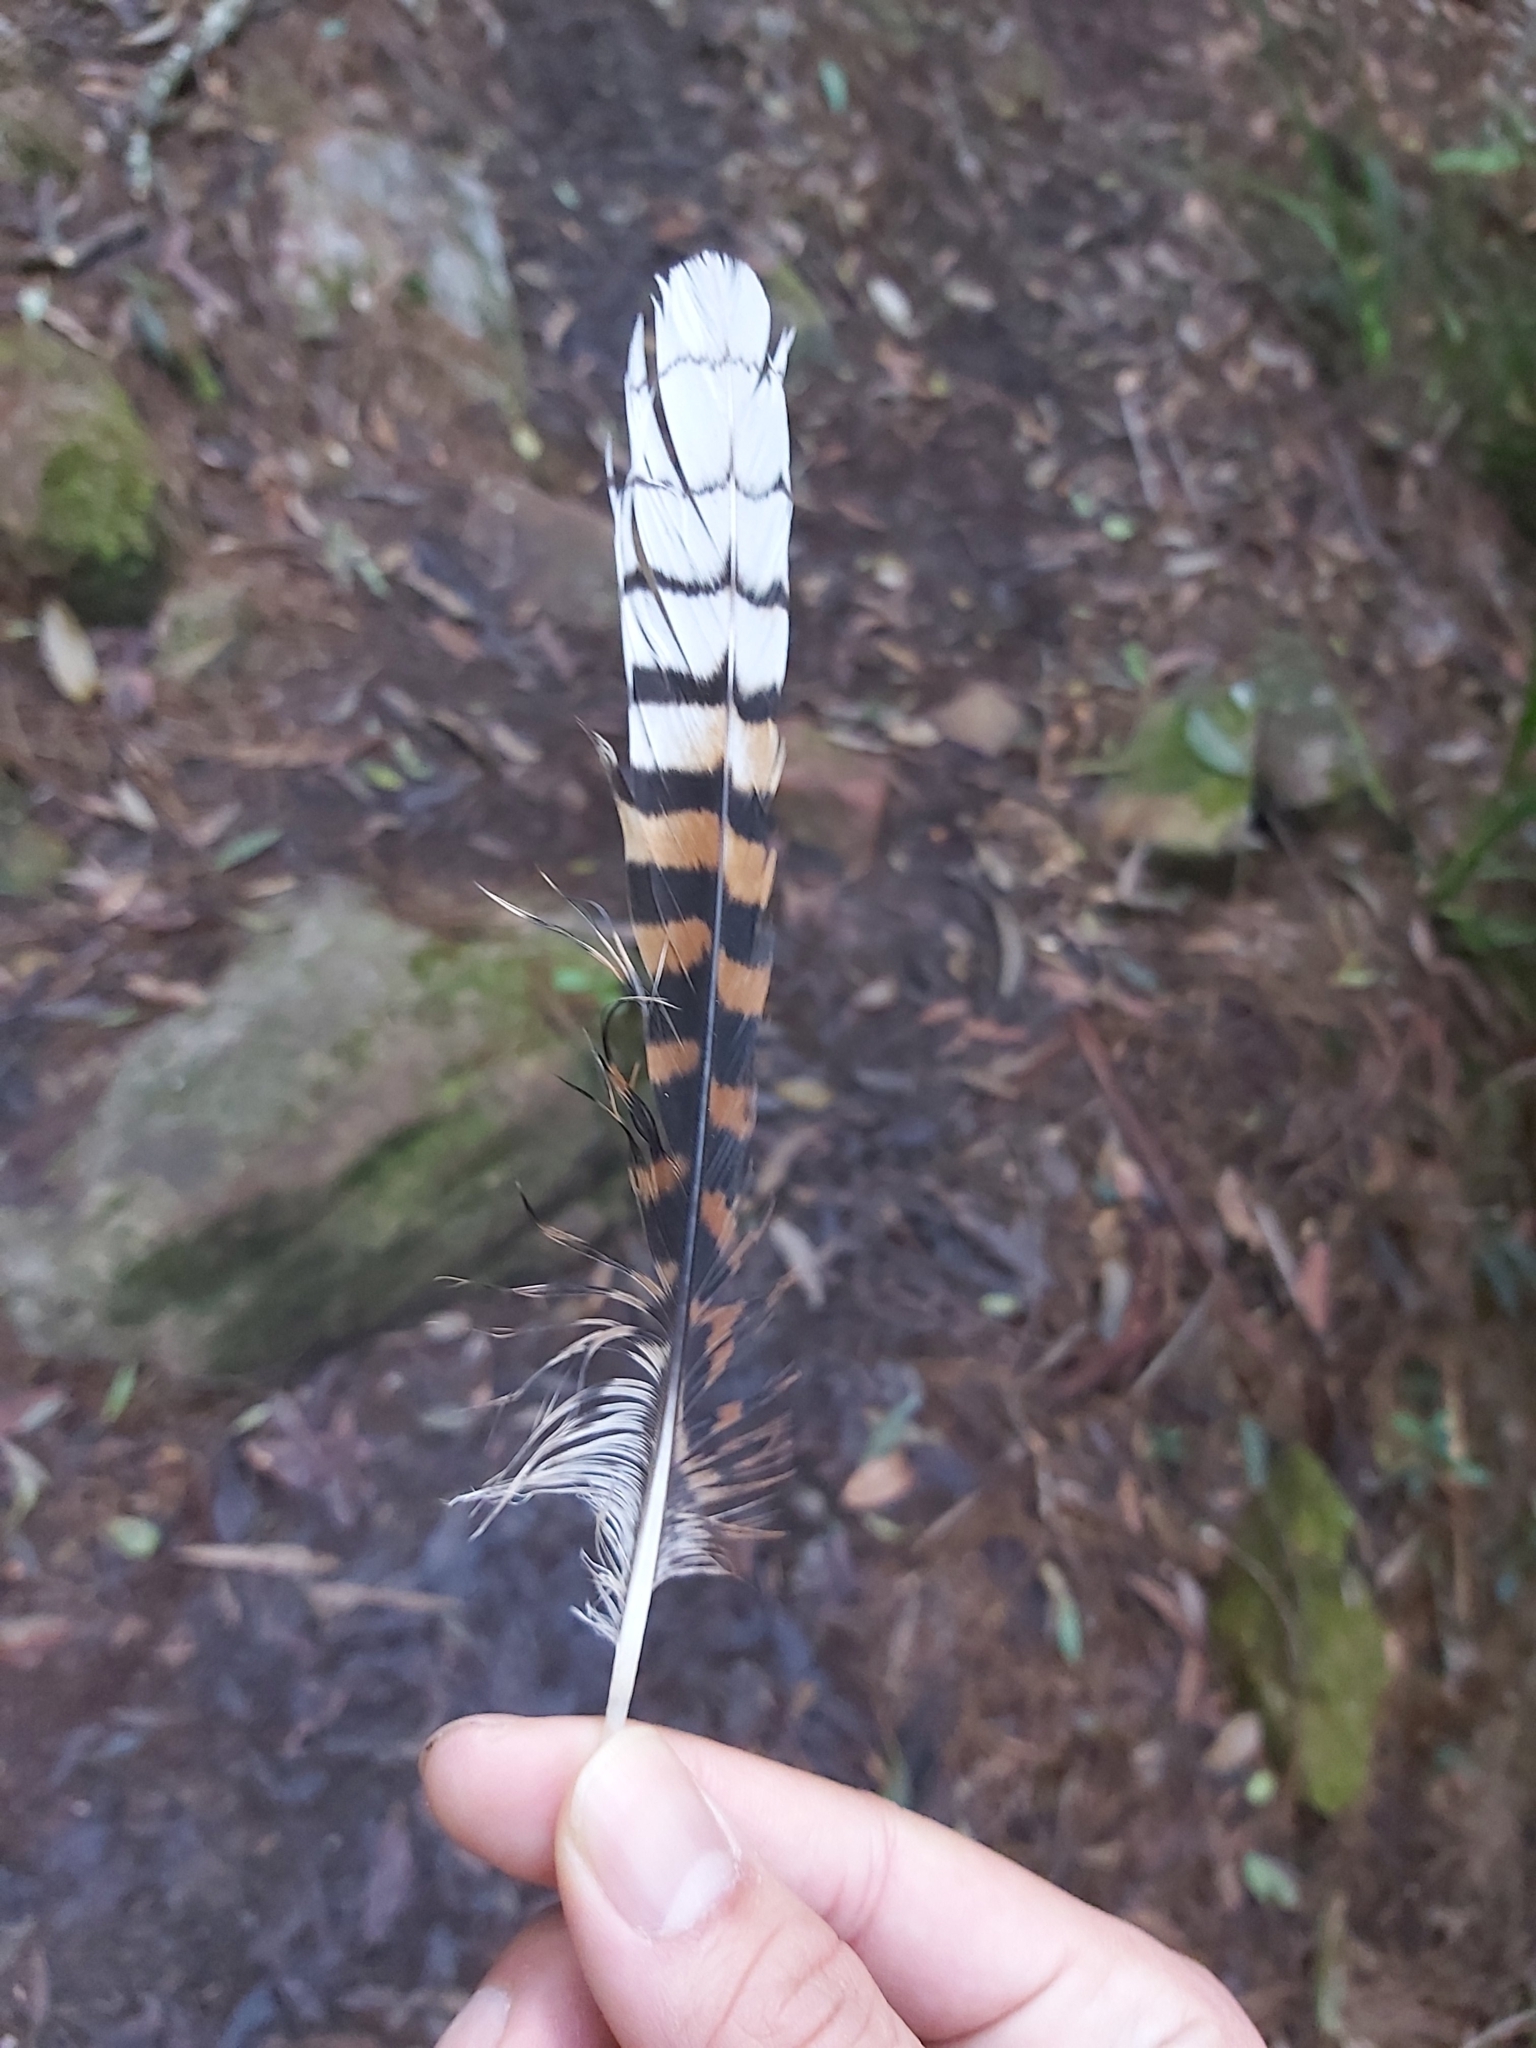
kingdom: Animalia
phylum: Chordata
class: Aves
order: Coraciiformes
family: Alcedinidae
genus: Dacelo
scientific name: Dacelo novaeguineae
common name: Laughing kookaburra
